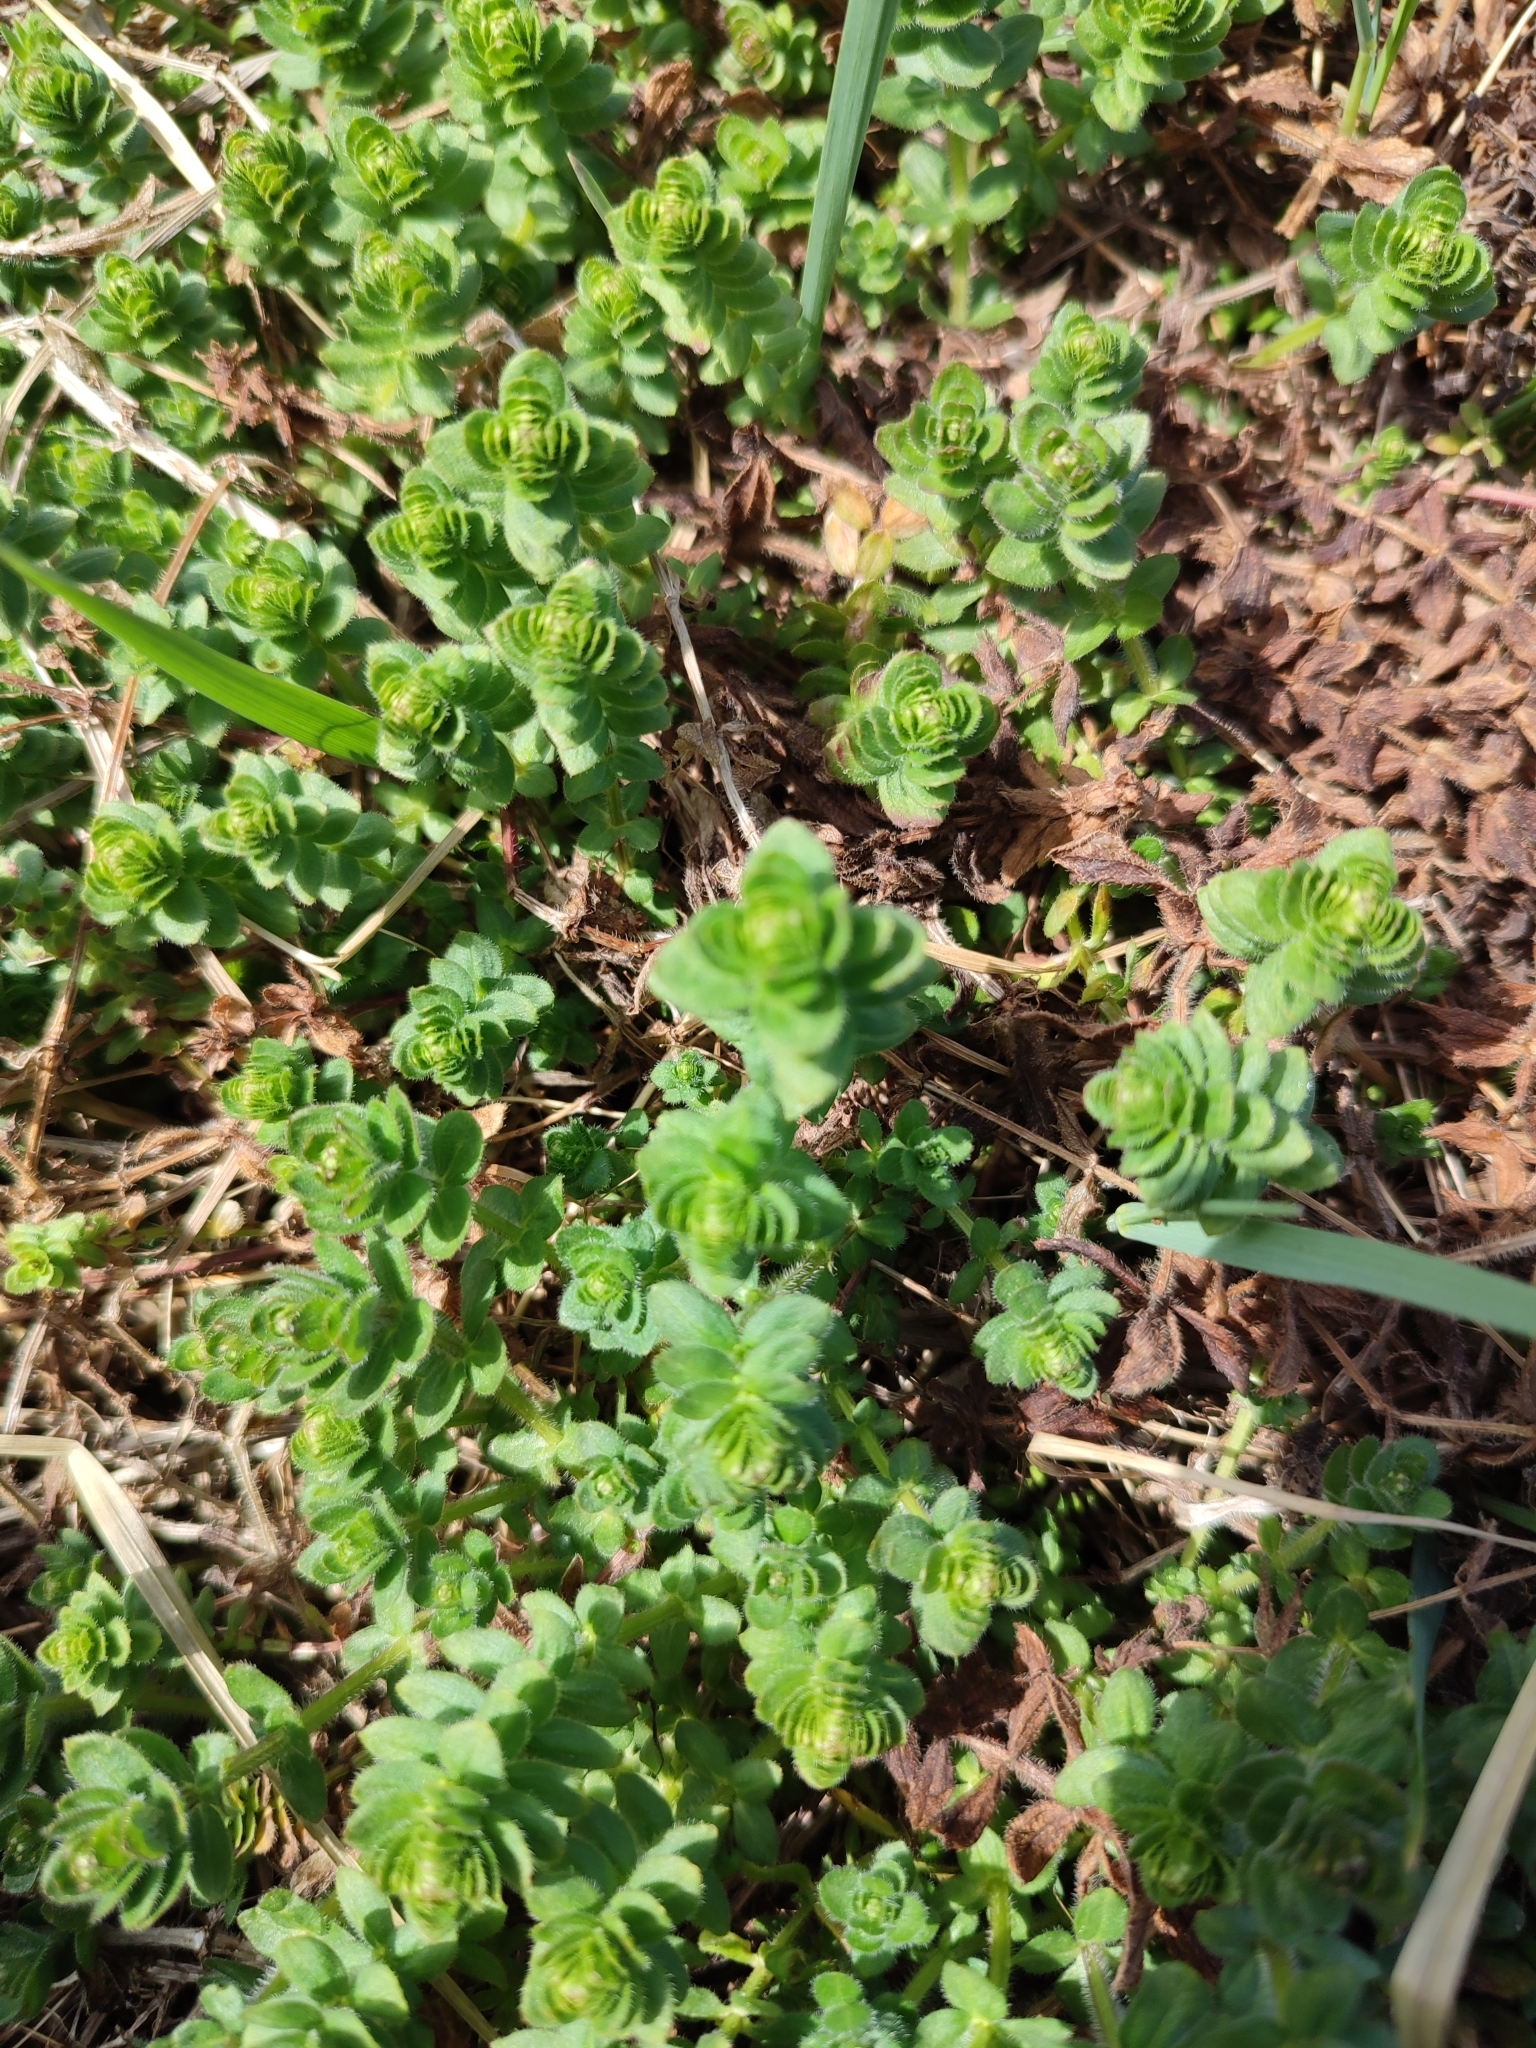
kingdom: Plantae
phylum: Tracheophyta
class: Magnoliopsida
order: Gentianales
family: Rubiaceae
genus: Cruciata
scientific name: Cruciata laevipes
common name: Crosswort
